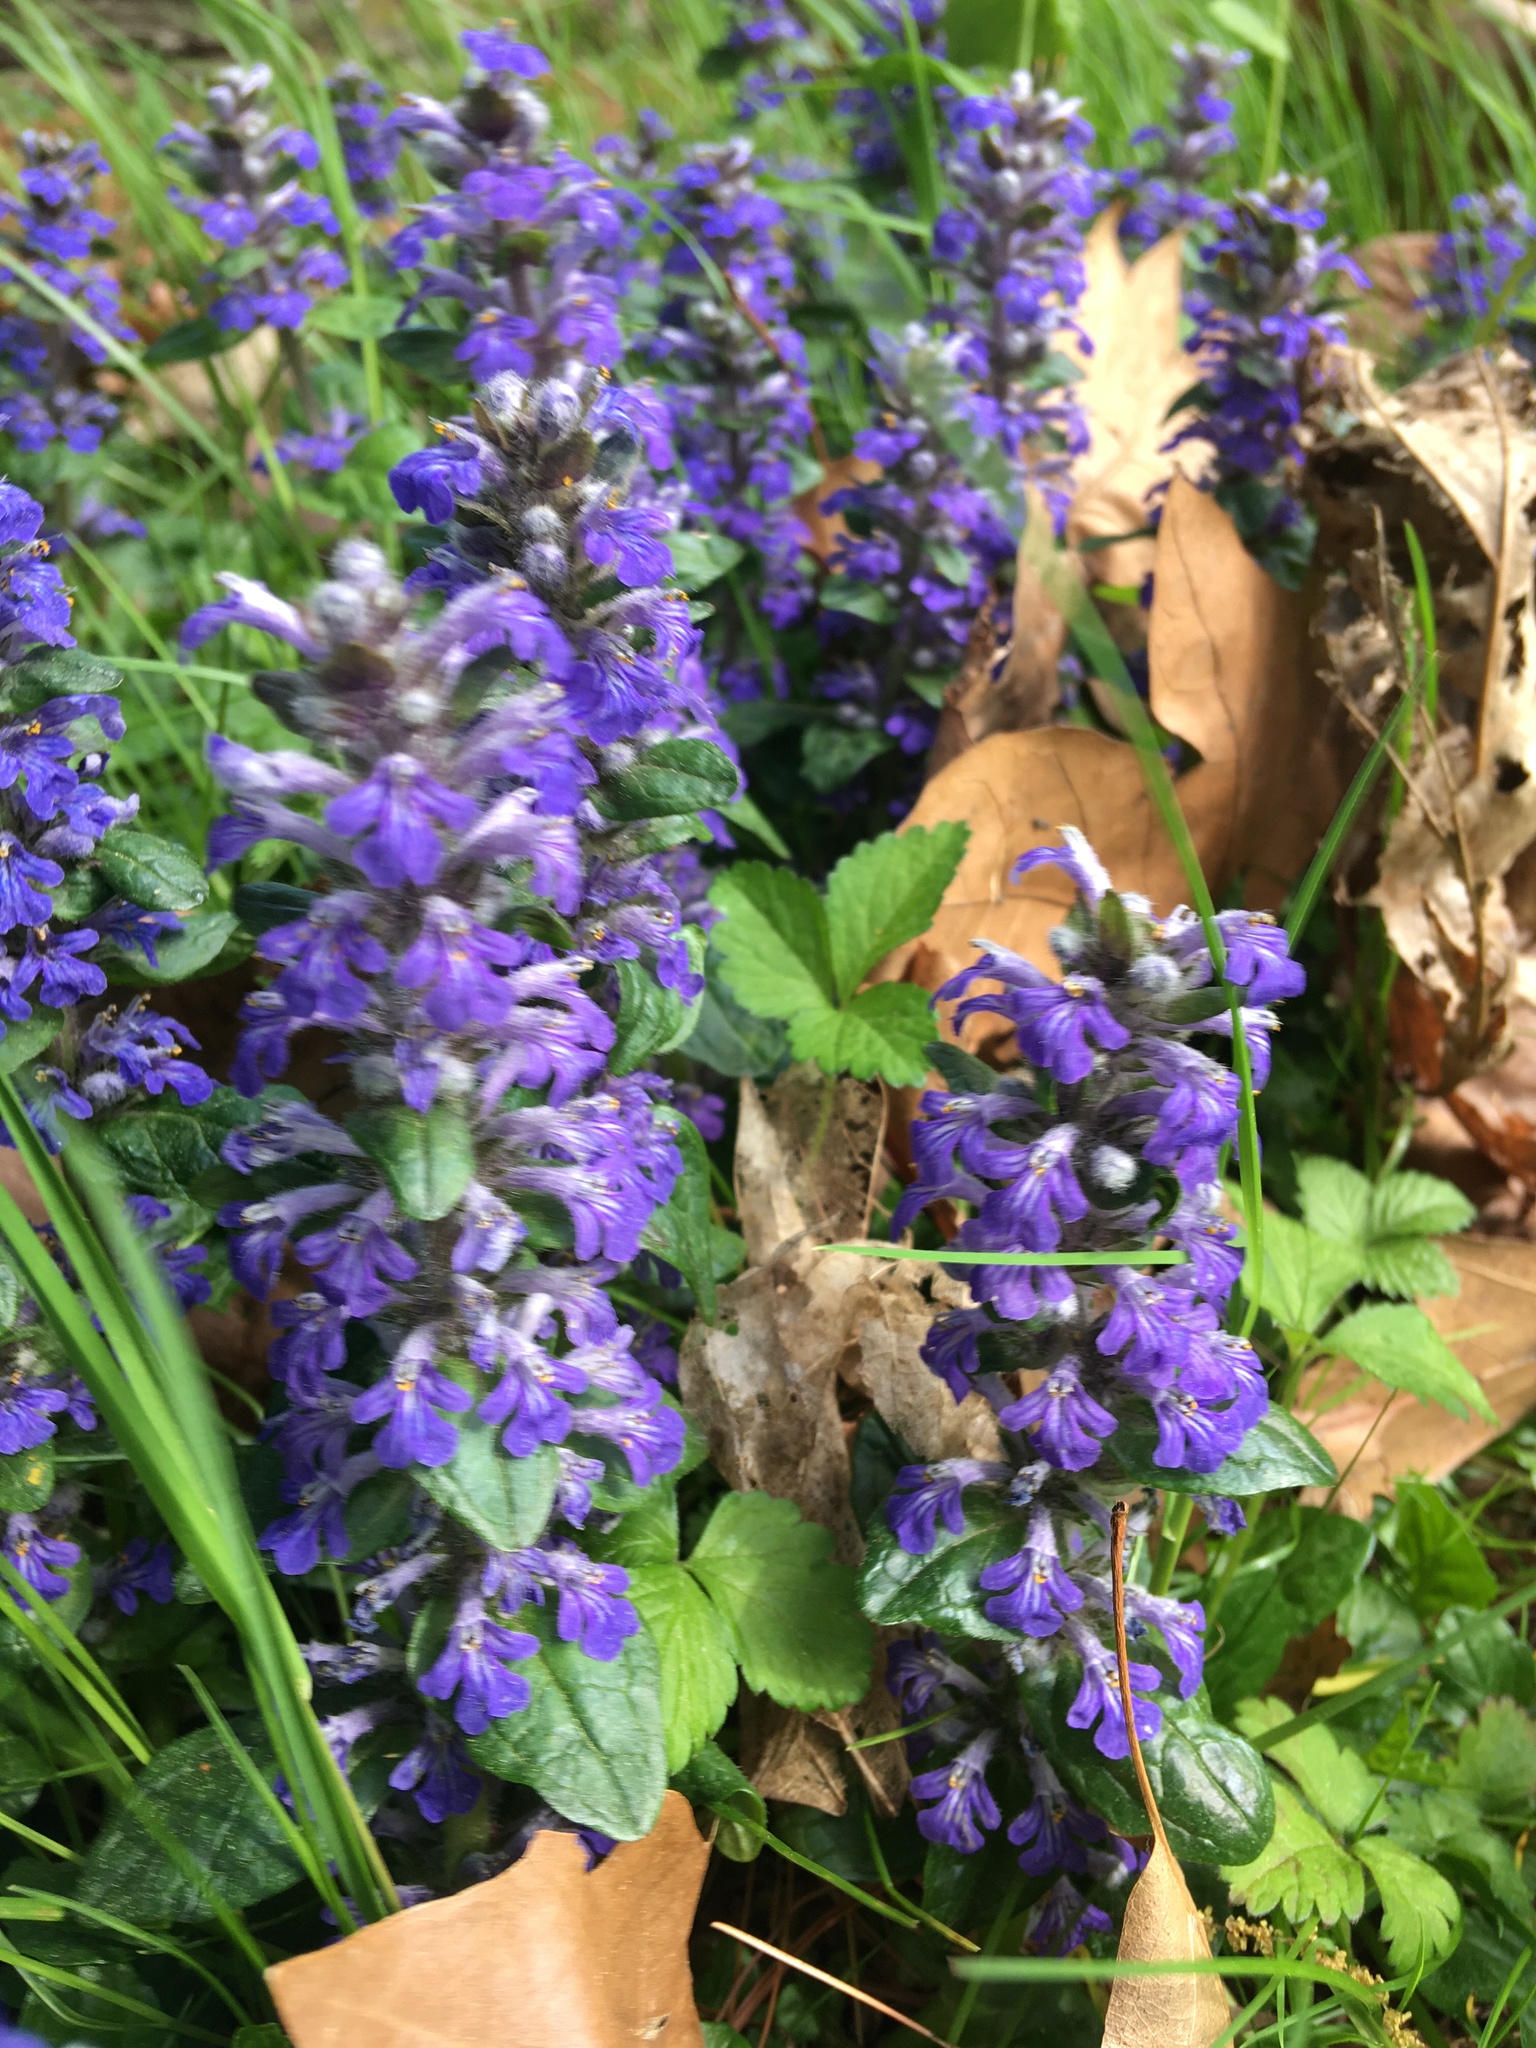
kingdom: Plantae
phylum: Tracheophyta
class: Magnoliopsida
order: Lamiales
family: Lamiaceae
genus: Ajuga
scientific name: Ajuga reptans
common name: Bugle
